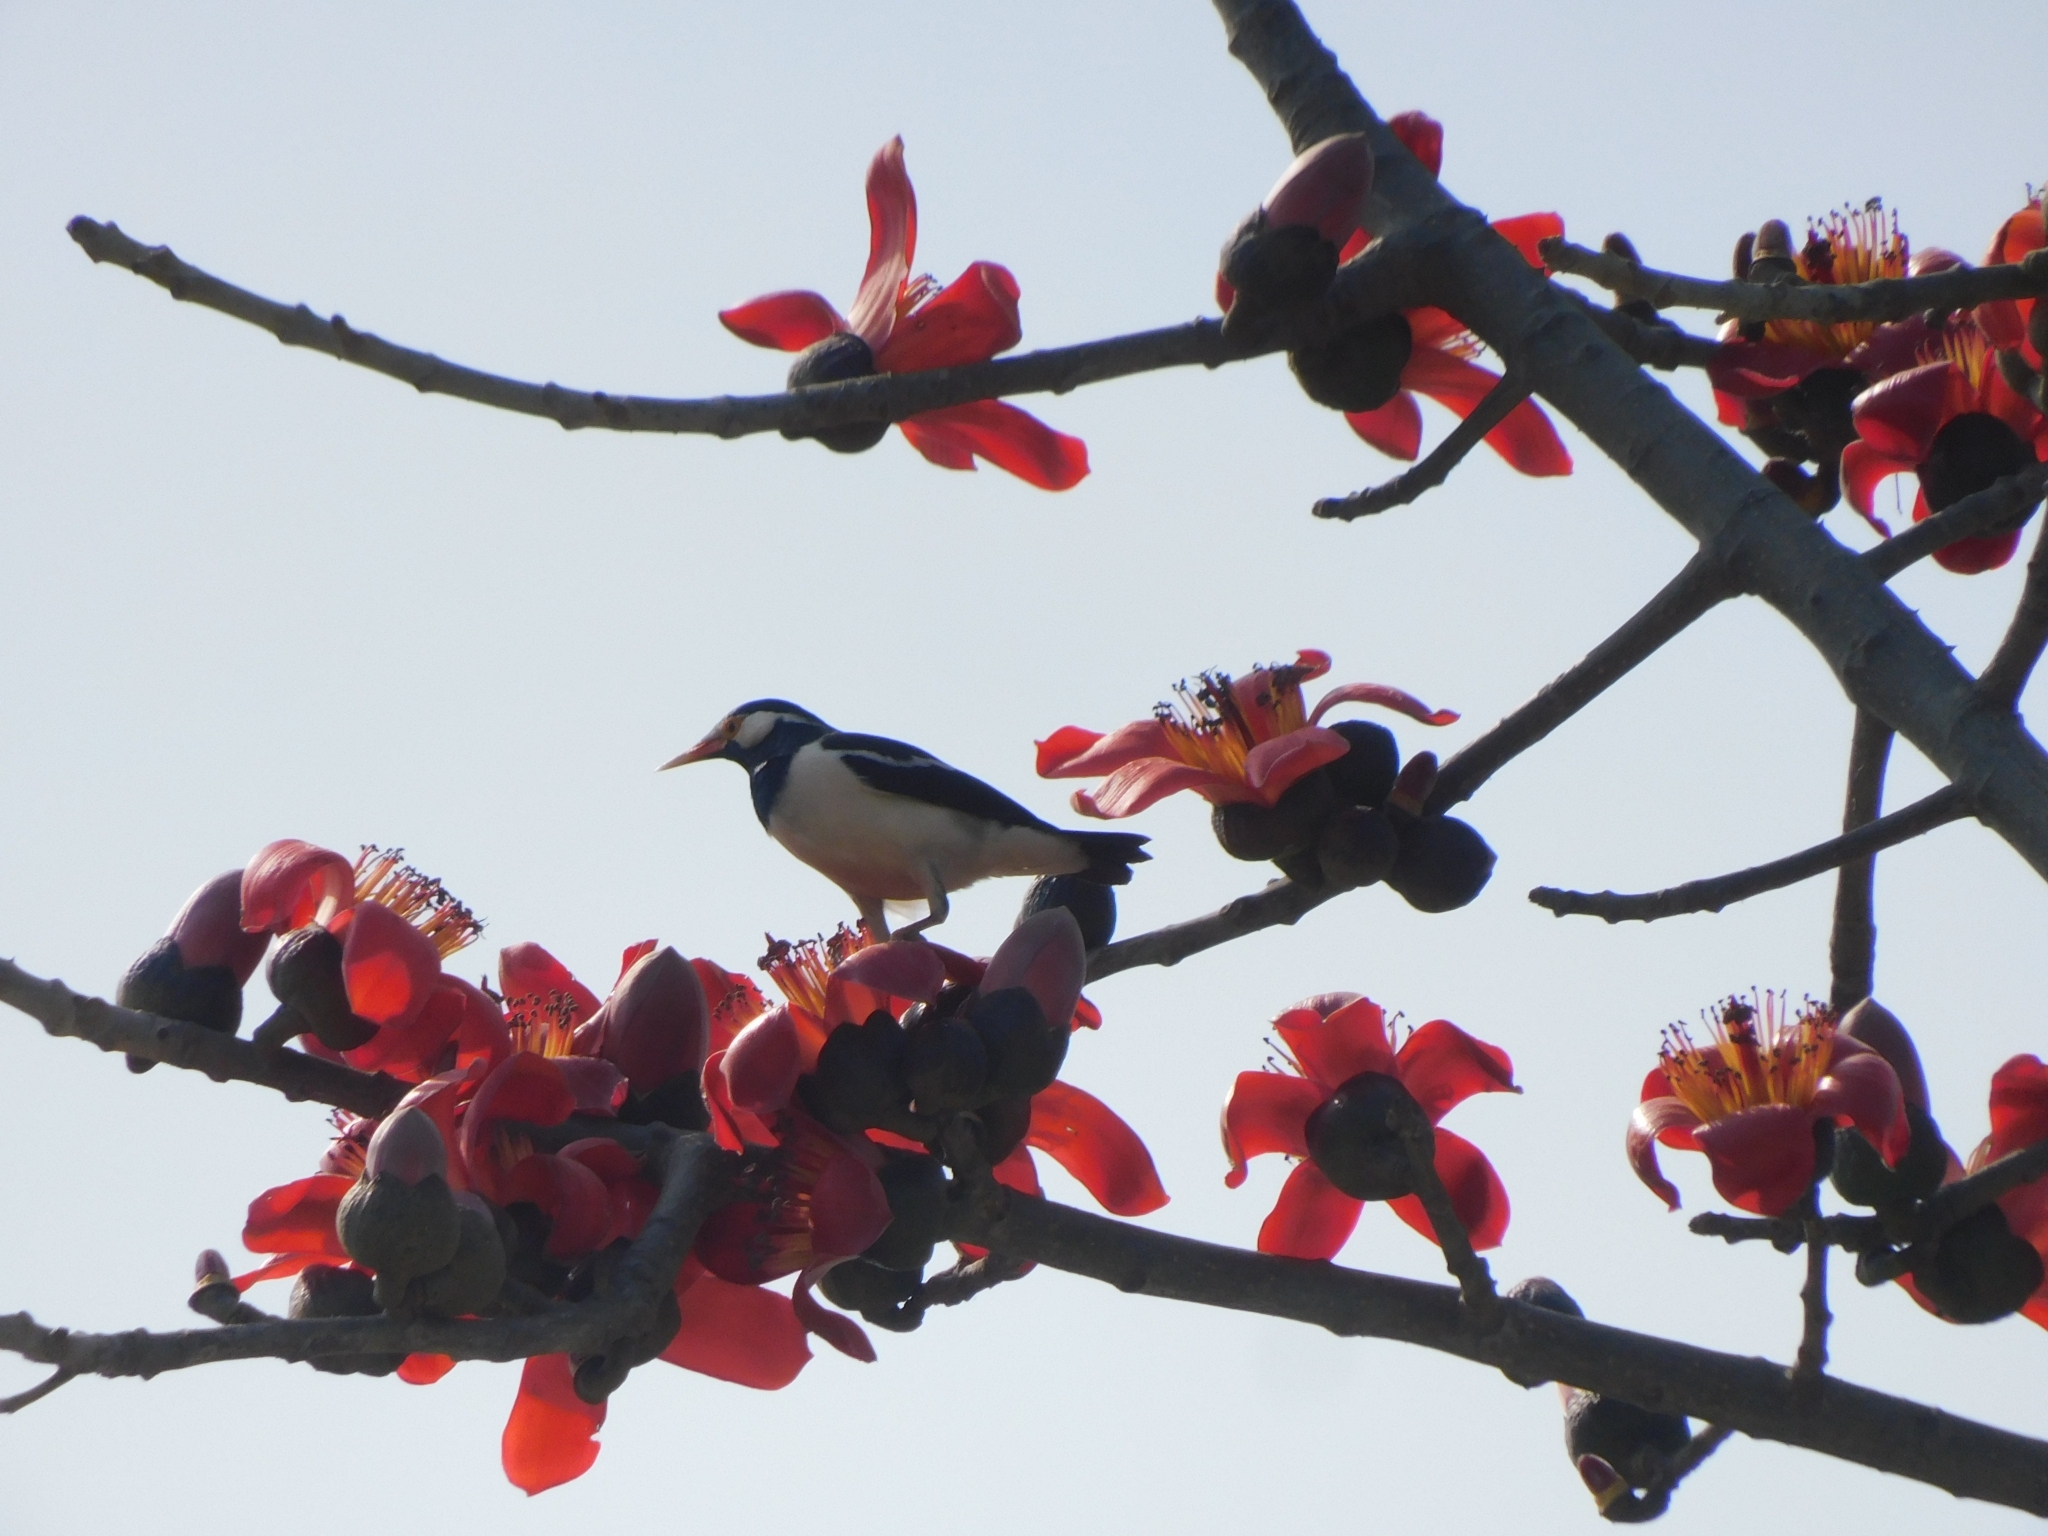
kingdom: Animalia
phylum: Chordata
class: Aves
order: Passeriformes
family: Sturnidae
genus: Gracupica
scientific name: Gracupica contra
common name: Pied myna
